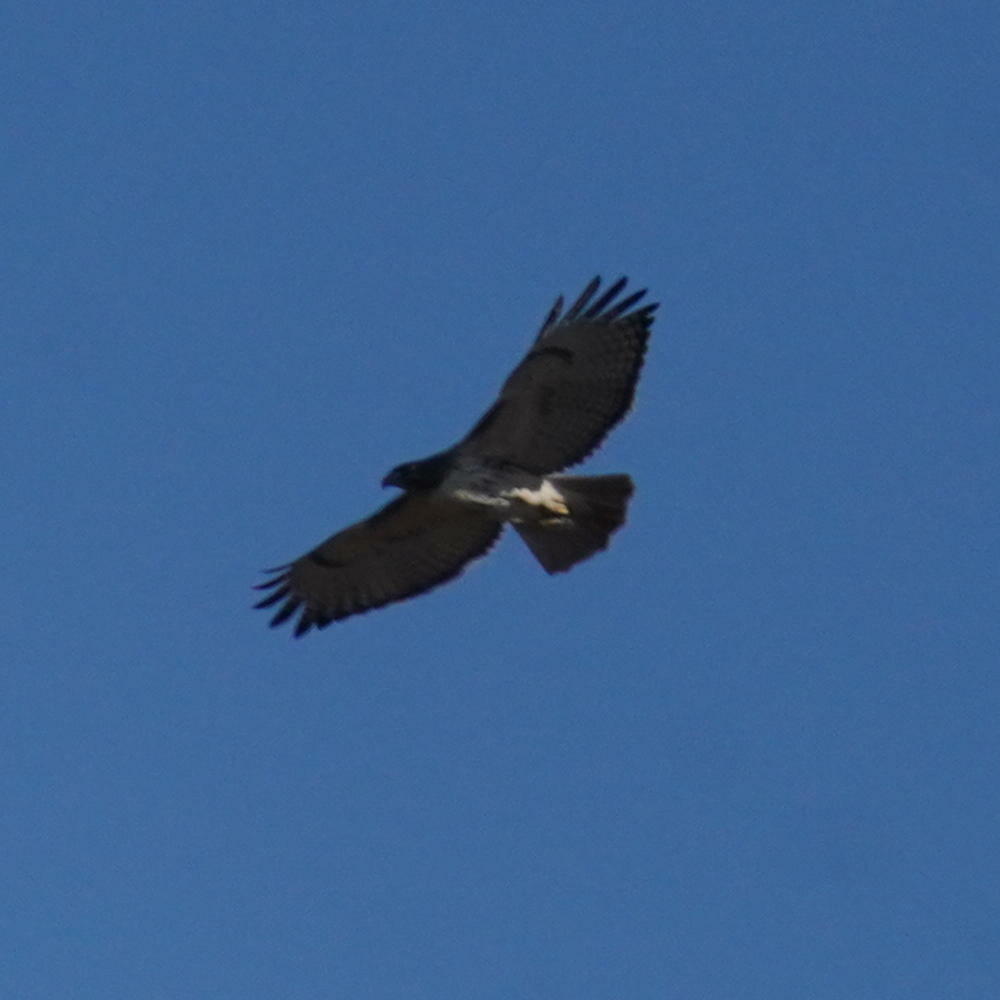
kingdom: Animalia
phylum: Chordata
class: Aves
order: Accipitriformes
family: Accipitridae
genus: Buteo
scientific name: Buteo jamaicensis
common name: Red-tailed hawk
